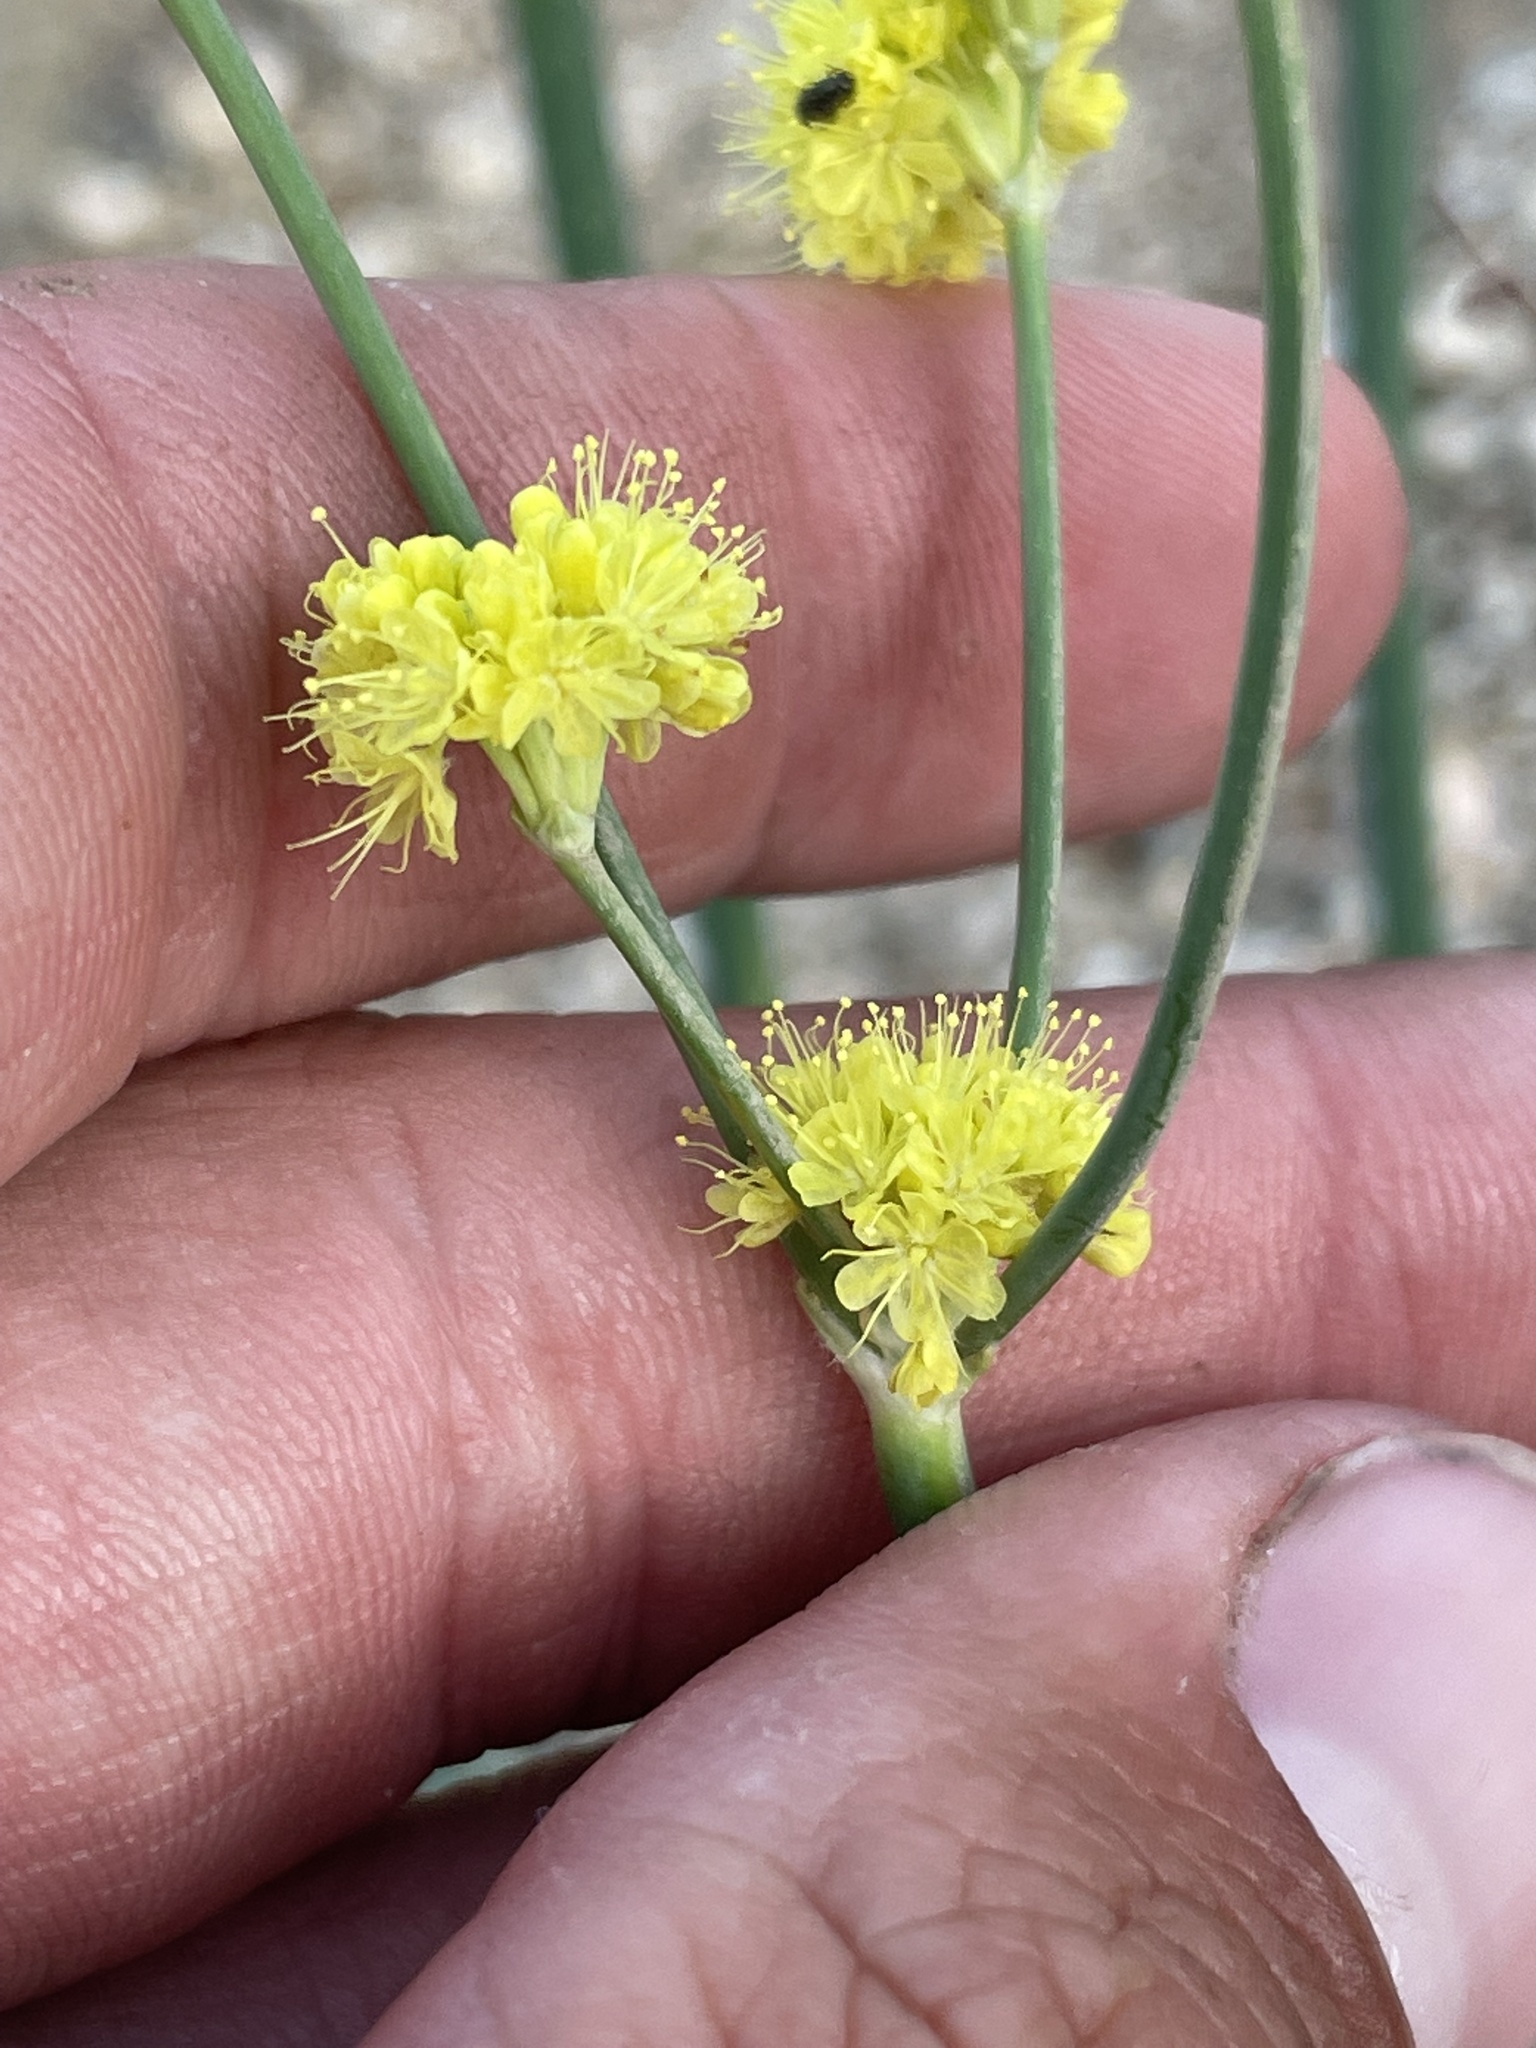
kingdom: Plantae
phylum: Tracheophyta
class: Magnoliopsida
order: Caryophyllales
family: Polygonaceae
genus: Eriogonum
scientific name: Eriogonum nudum
